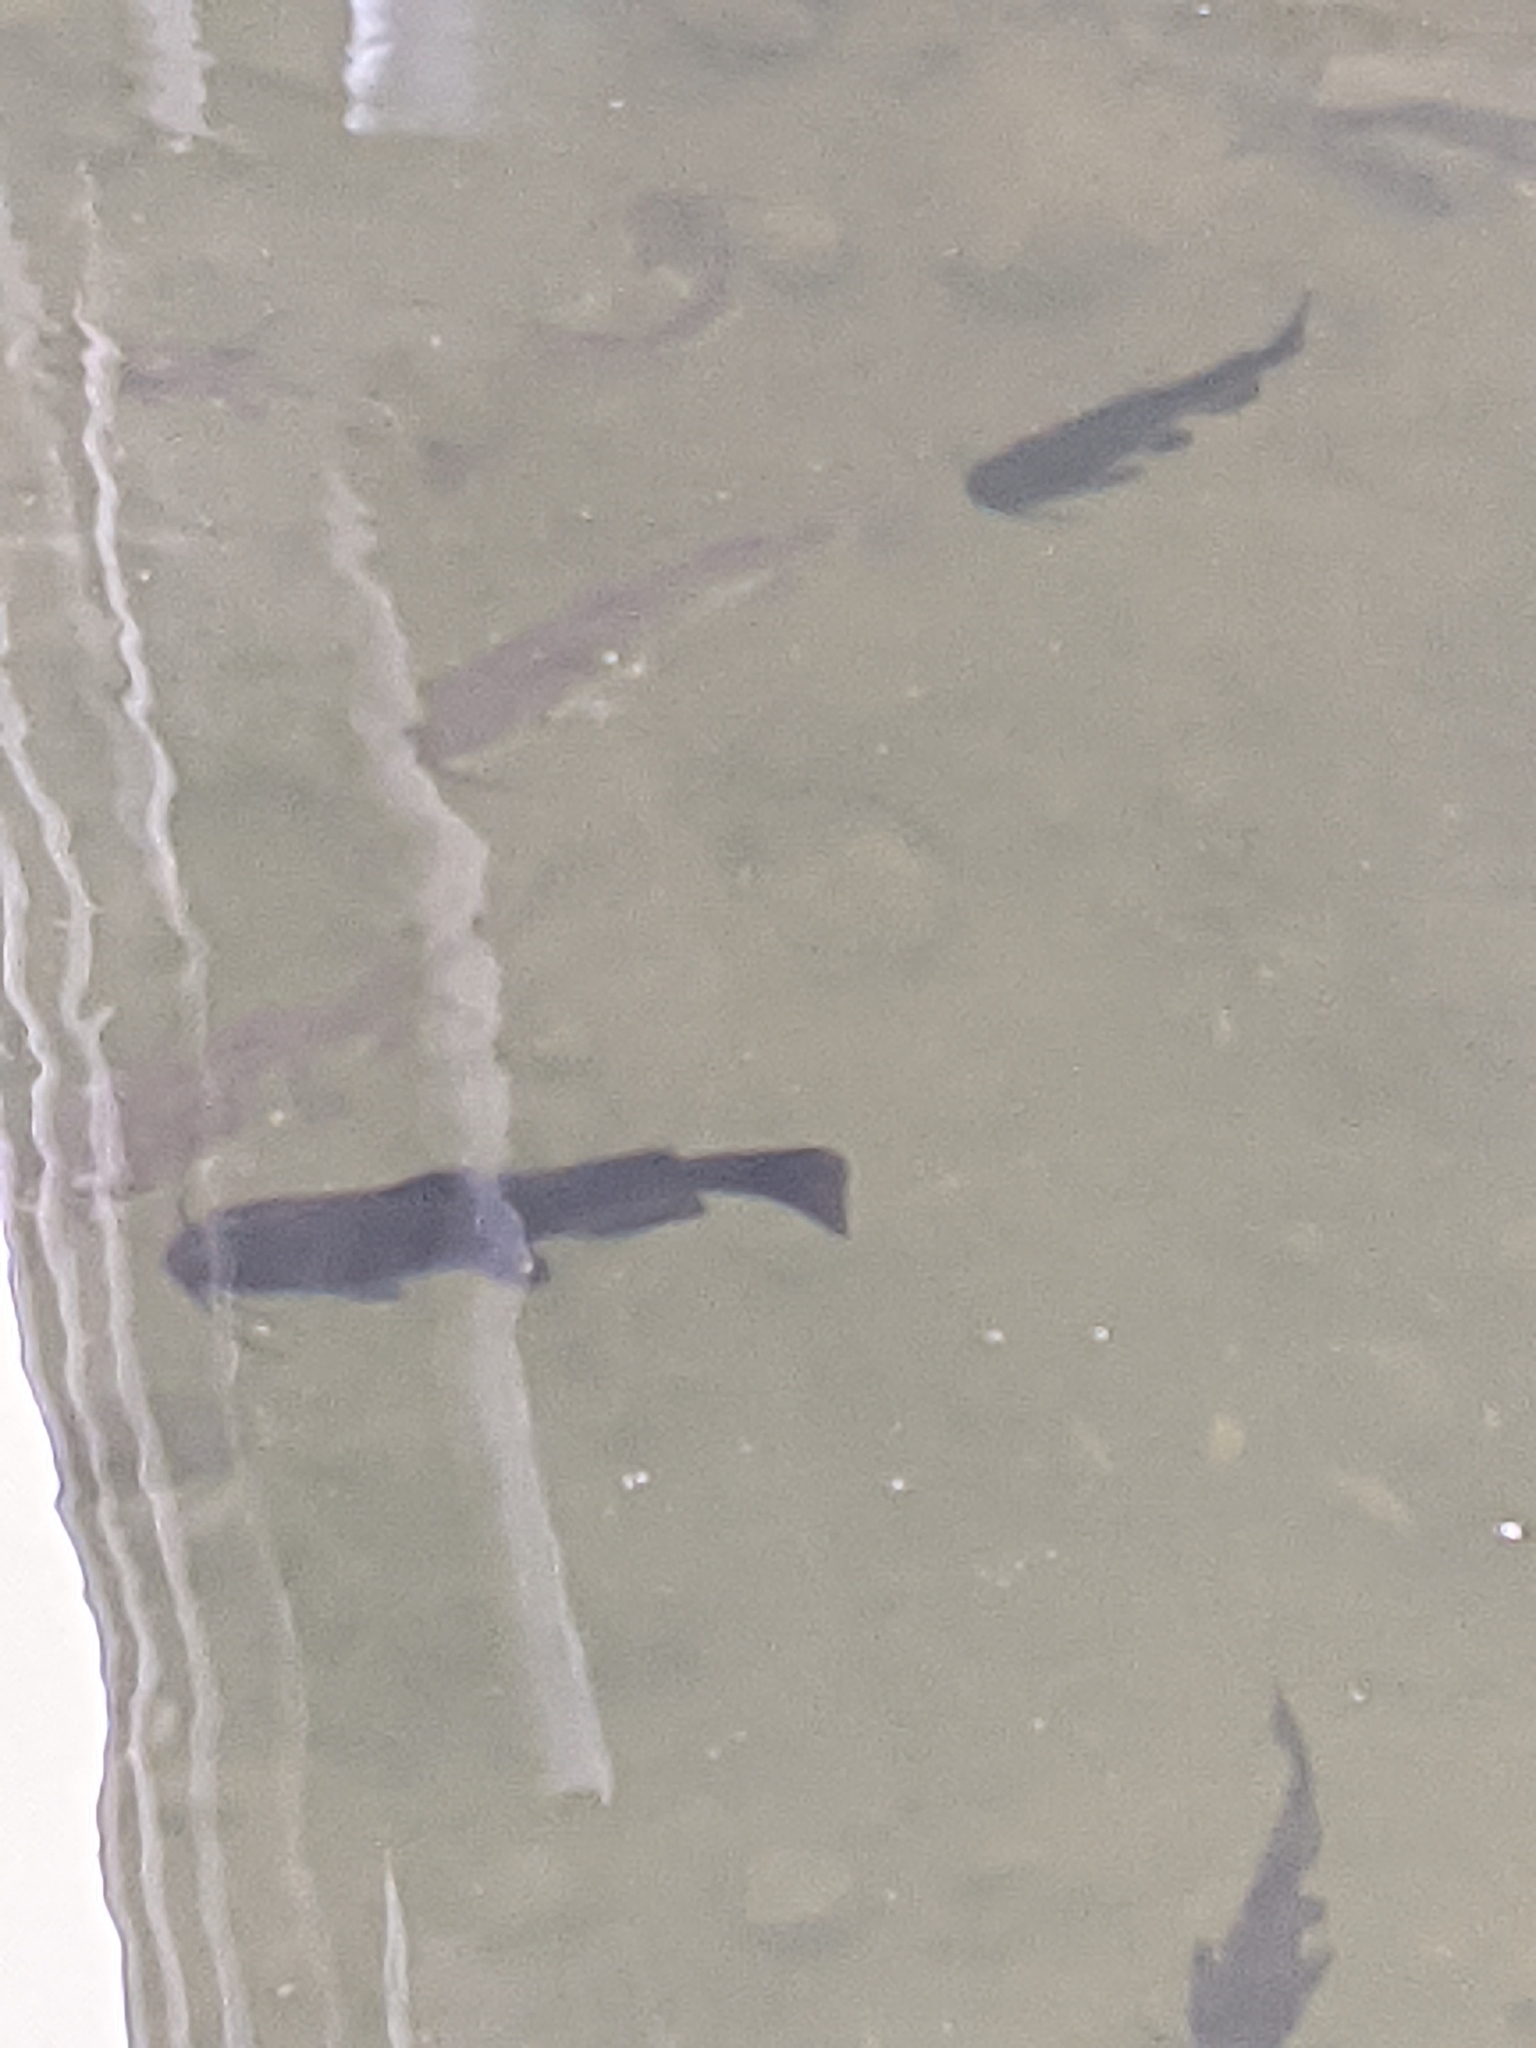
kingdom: Animalia
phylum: Chordata
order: Siluriformes
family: Ictaluridae
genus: Ameiurus
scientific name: Ameiurus nebulosus
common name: Brown bullhead
